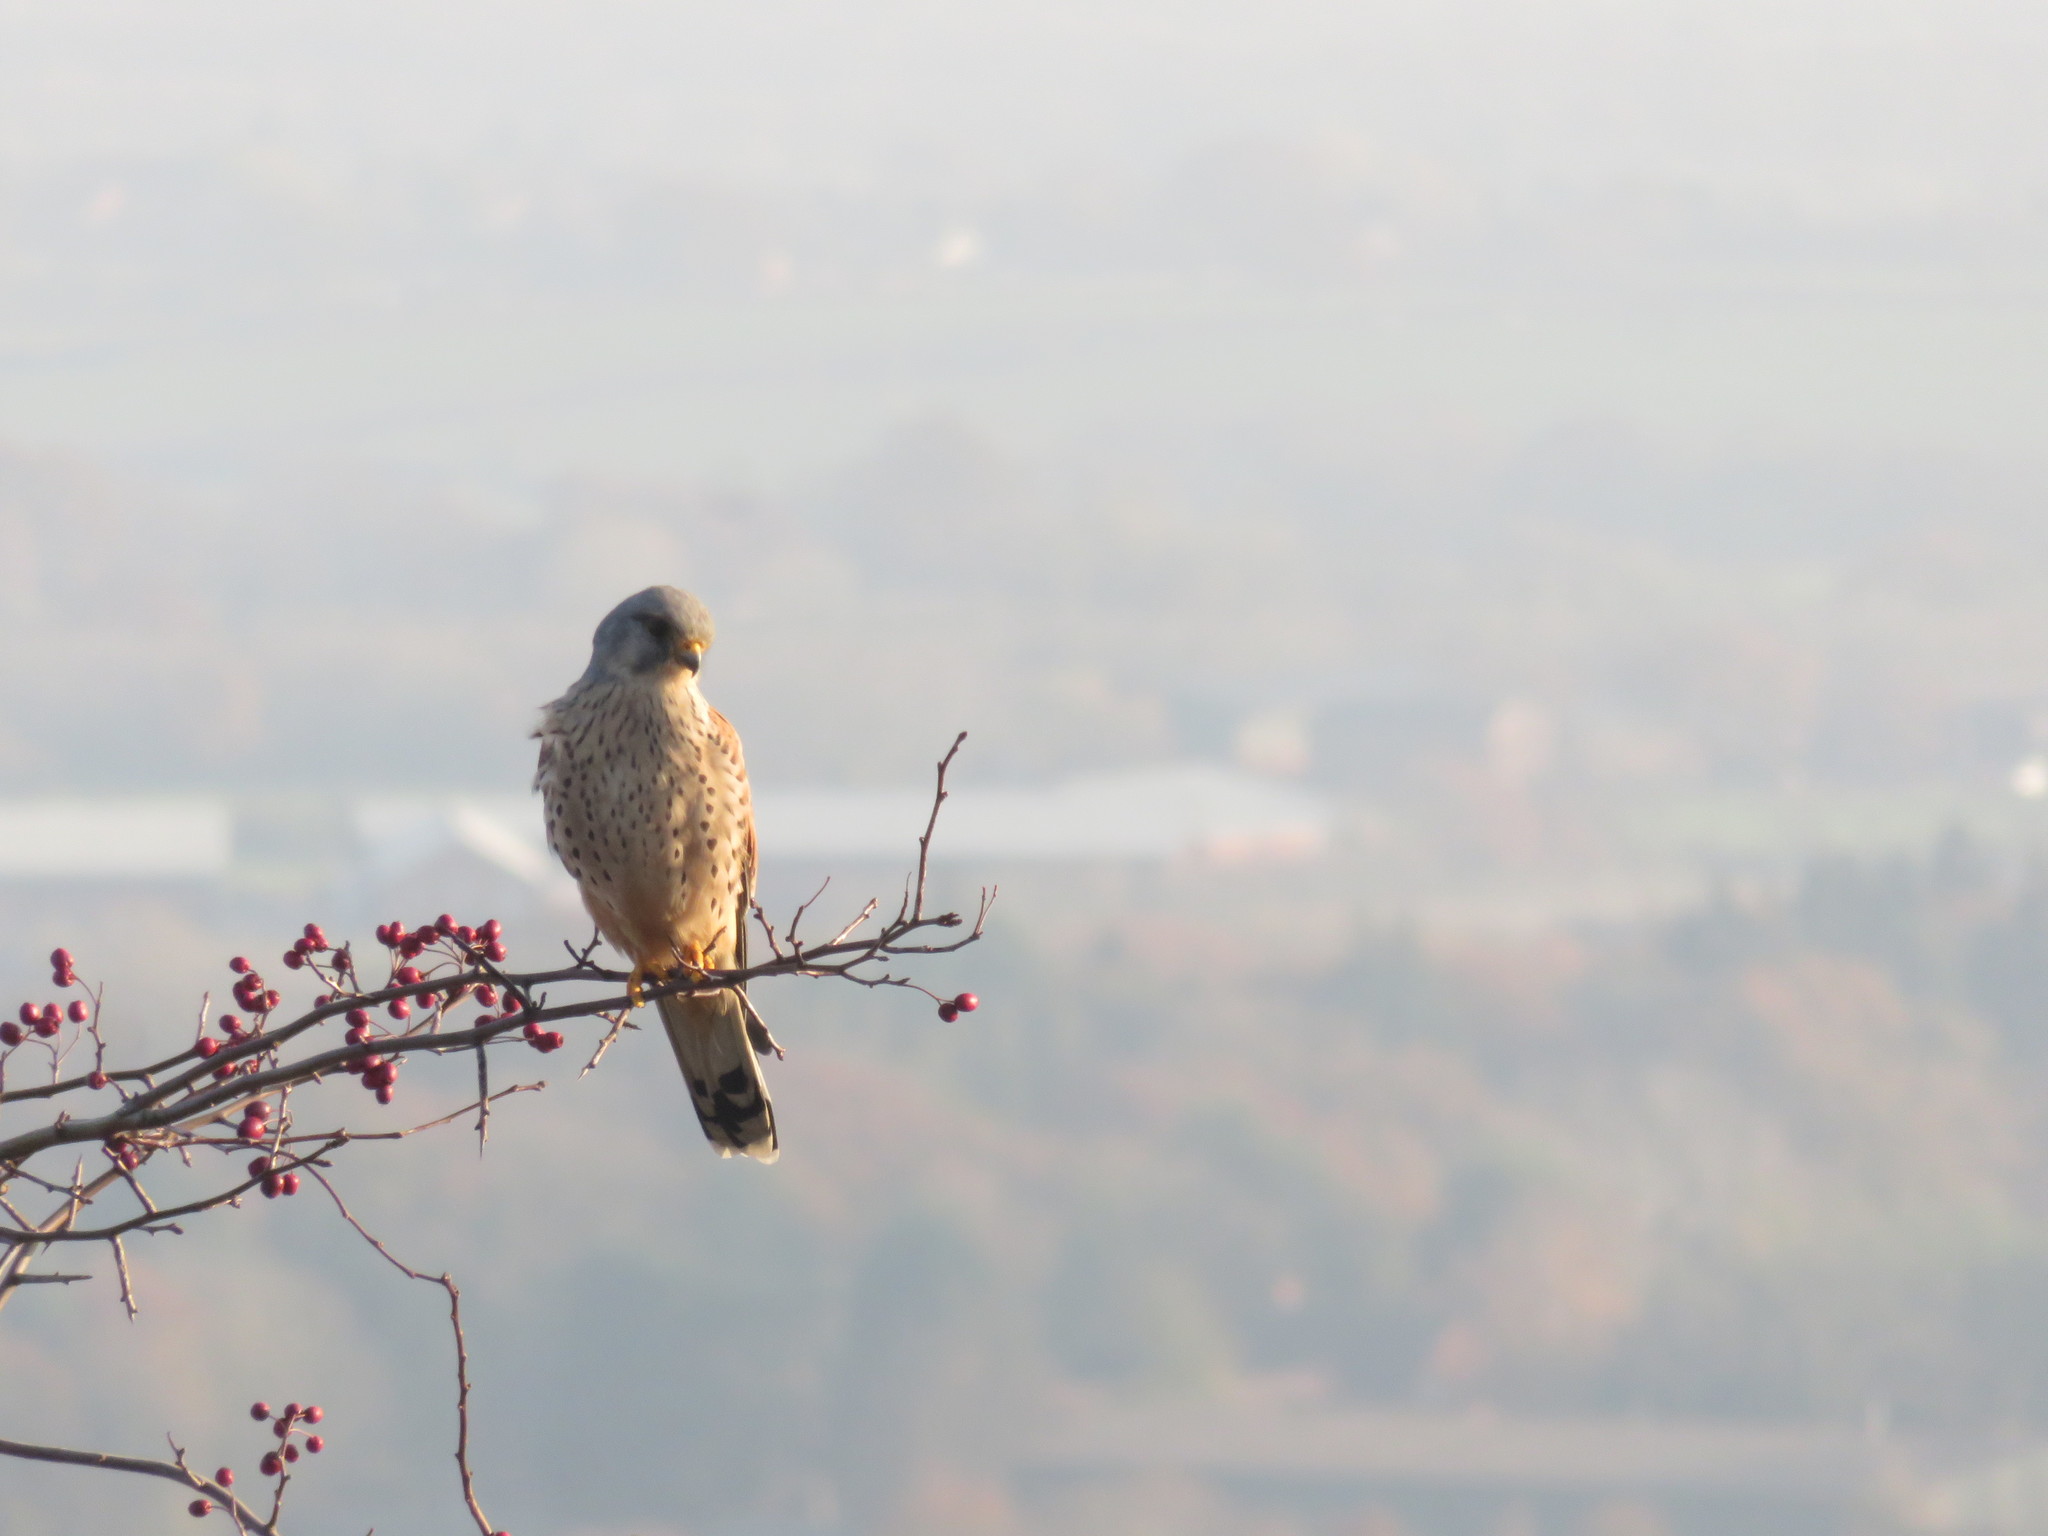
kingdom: Animalia
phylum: Chordata
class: Aves
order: Falconiformes
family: Falconidae
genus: Falco
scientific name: Falco tinnunculus
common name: Common kestrel
